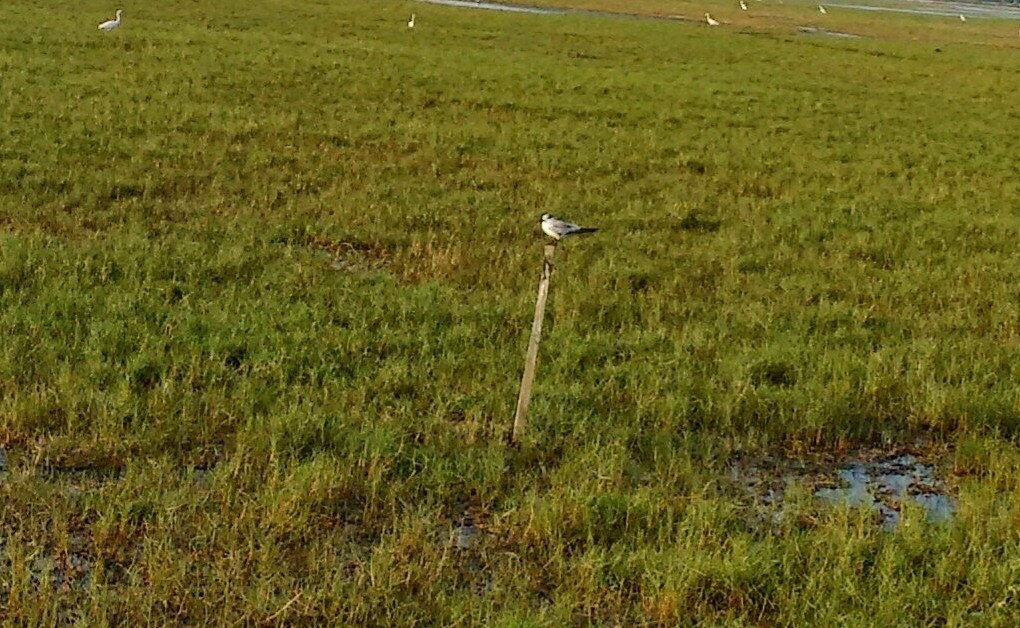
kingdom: Animalia
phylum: Chordata
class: Aves
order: Charadriiformes
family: Laridae
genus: Chlidonias
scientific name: Chlidonias hybrida
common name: Whiskered tern
